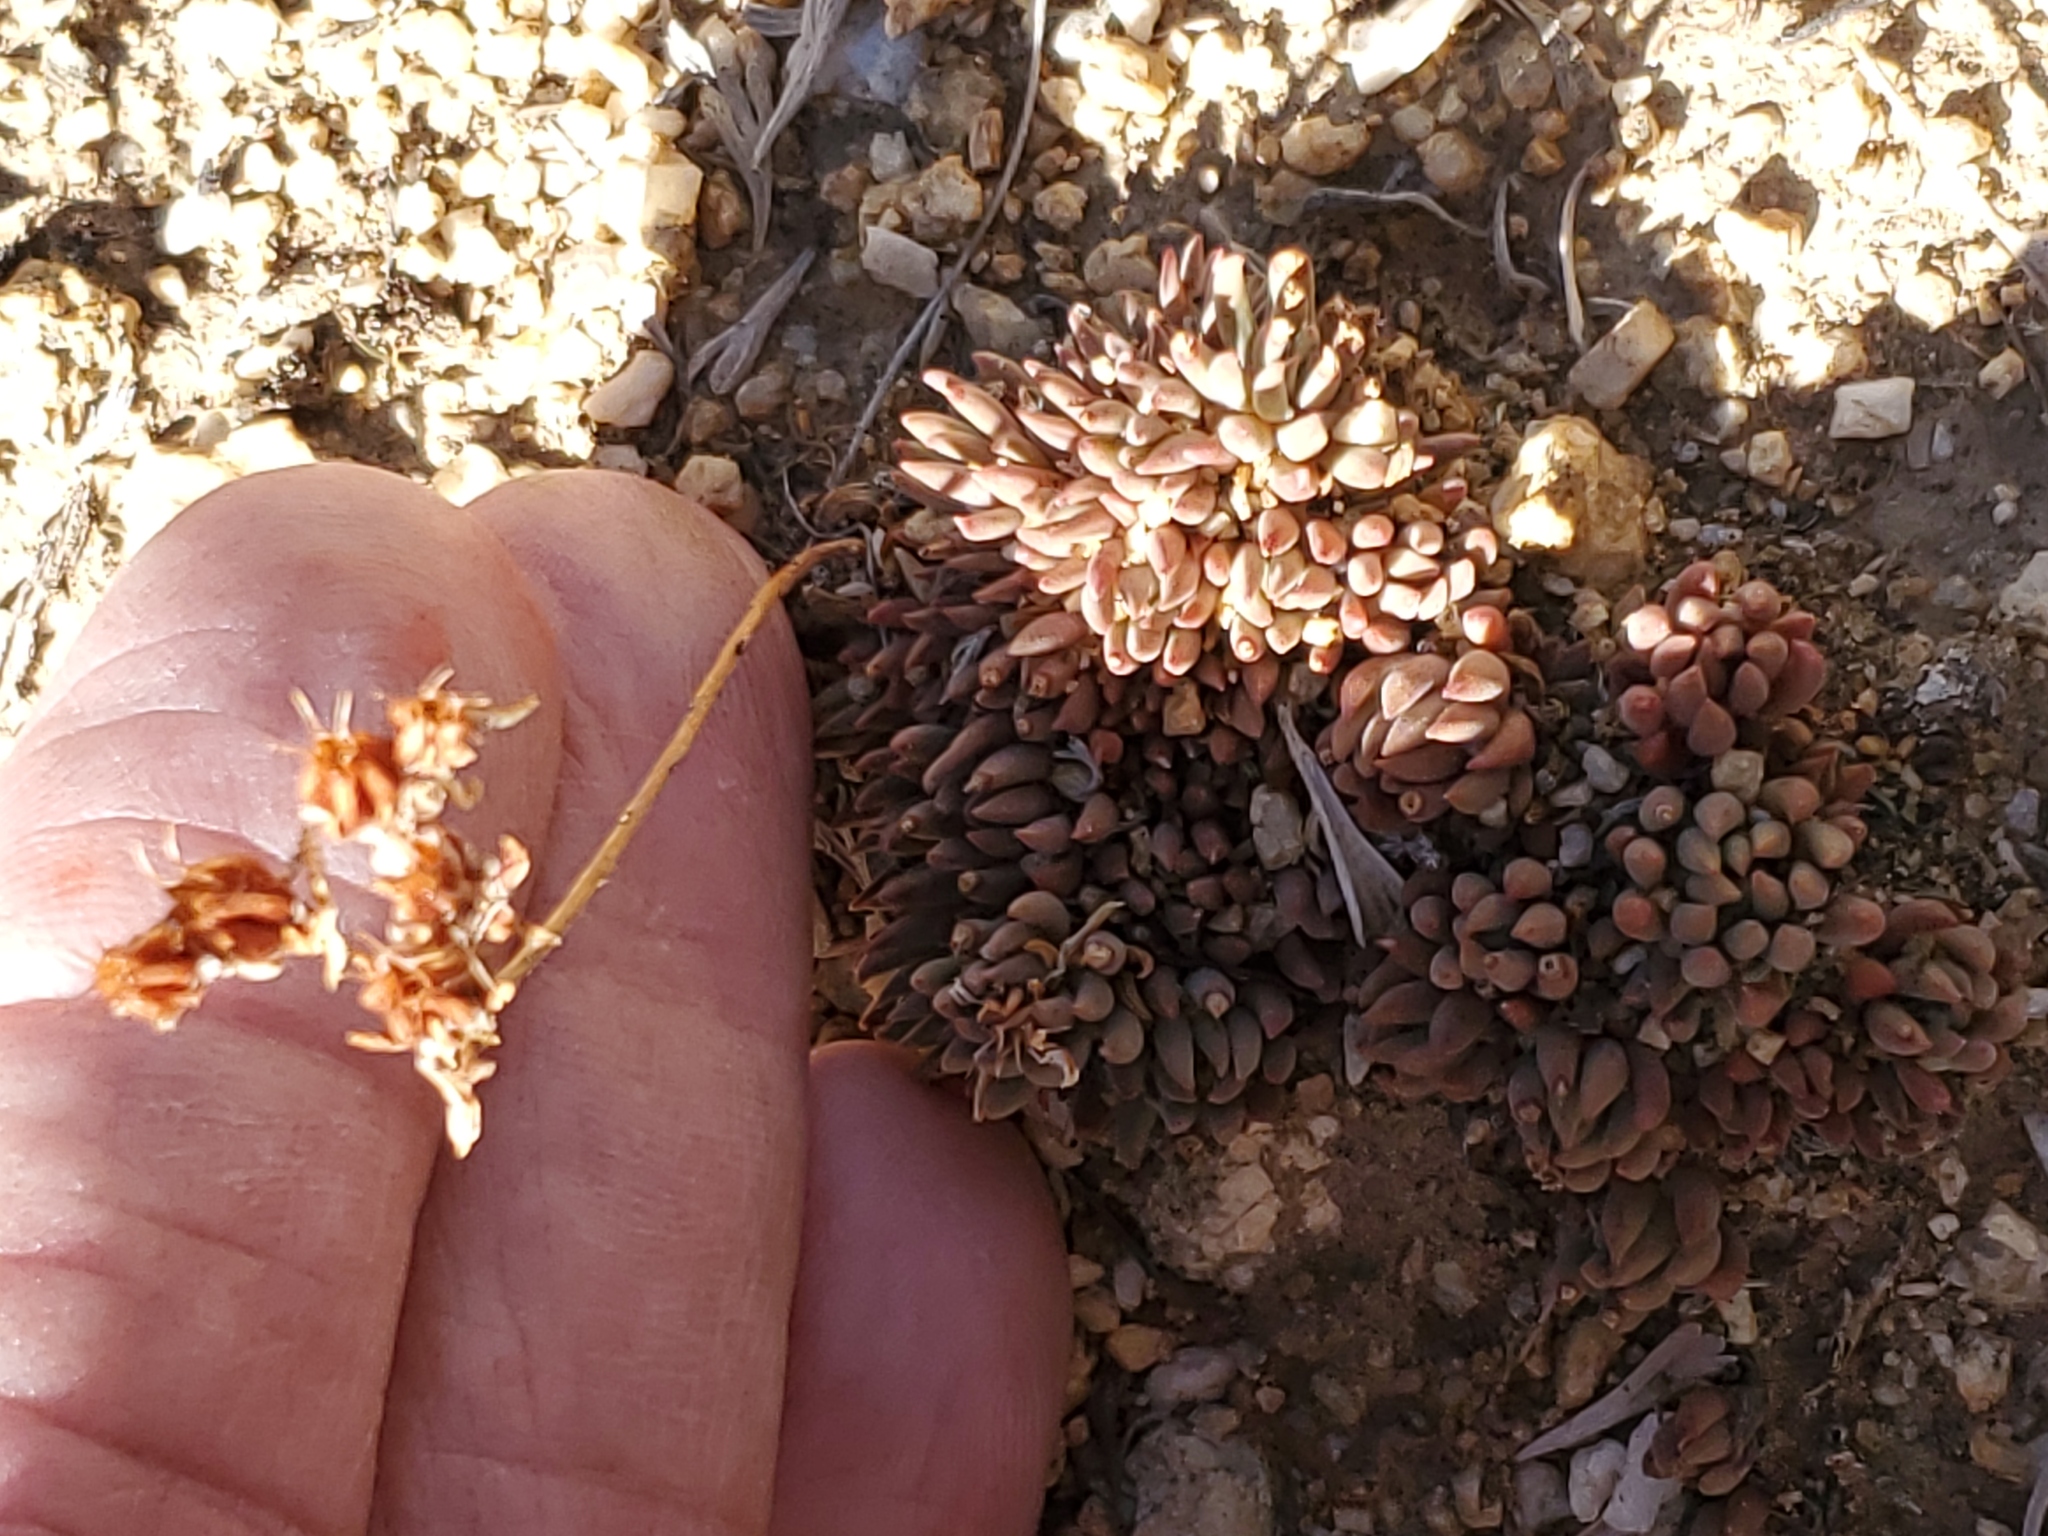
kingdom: Plantae
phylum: Tracheophyta
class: Magnoliopsida
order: Saxifragales
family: Crassulaceae
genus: Sedum
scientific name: Sedum lanceolatum
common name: Common stonecrop
